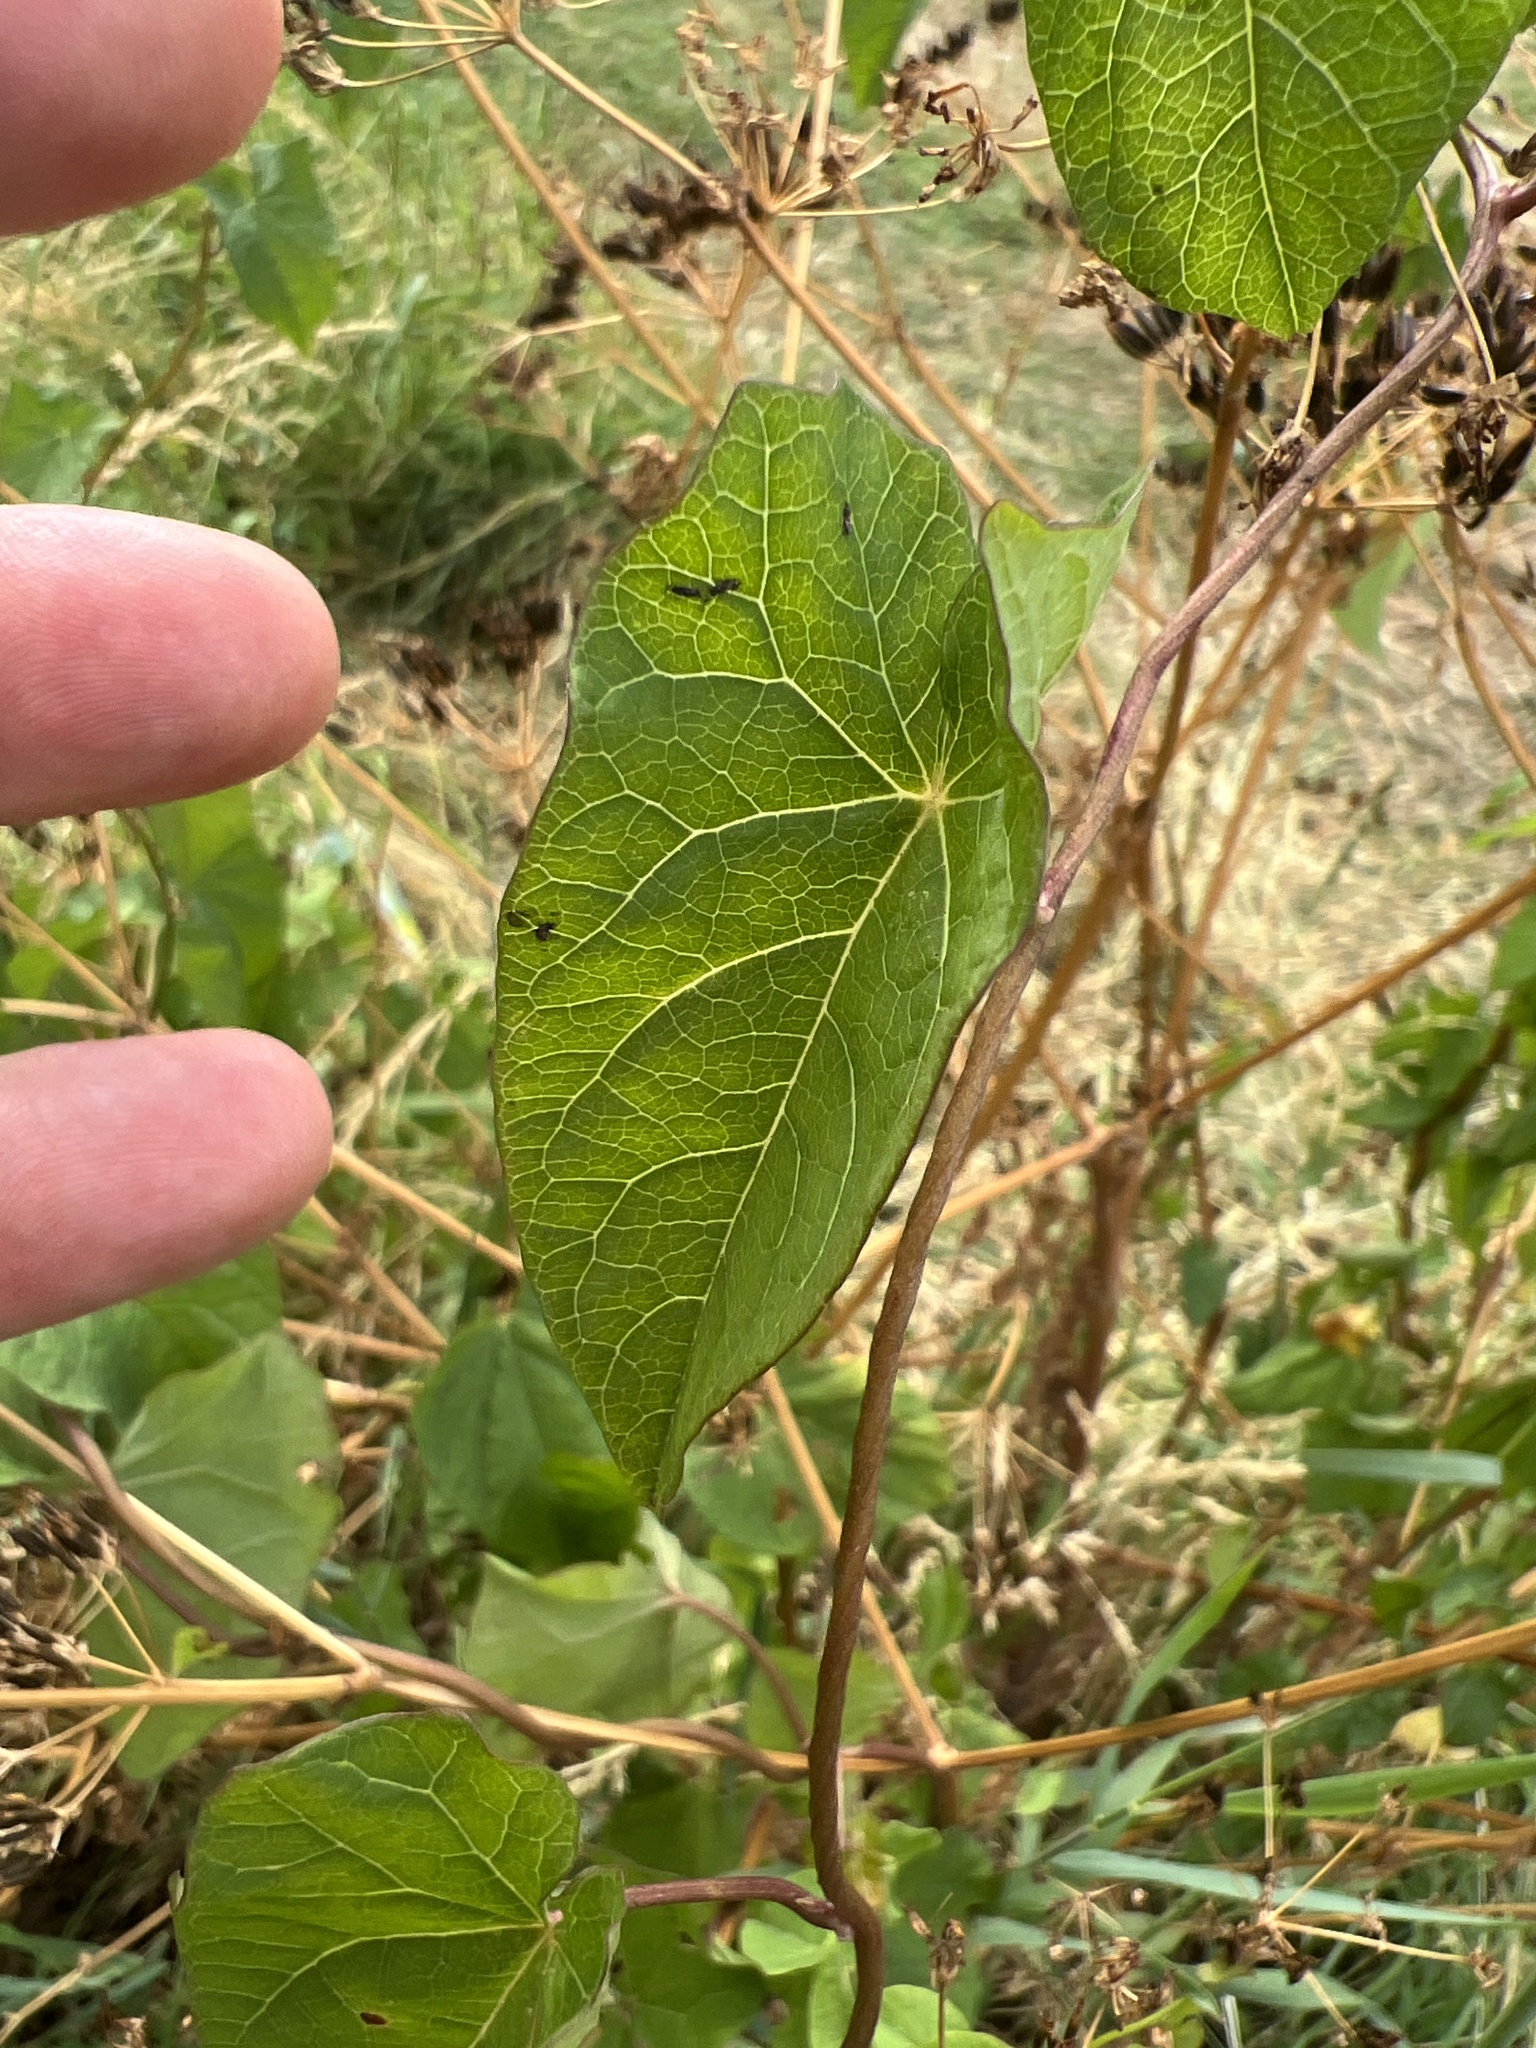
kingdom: Plantae
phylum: Tracheophyta
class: Magnoliopsida
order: Solanales
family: Convolvulaceae
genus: Calystegia
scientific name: Calystegia sepium
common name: Hedge bindweed
